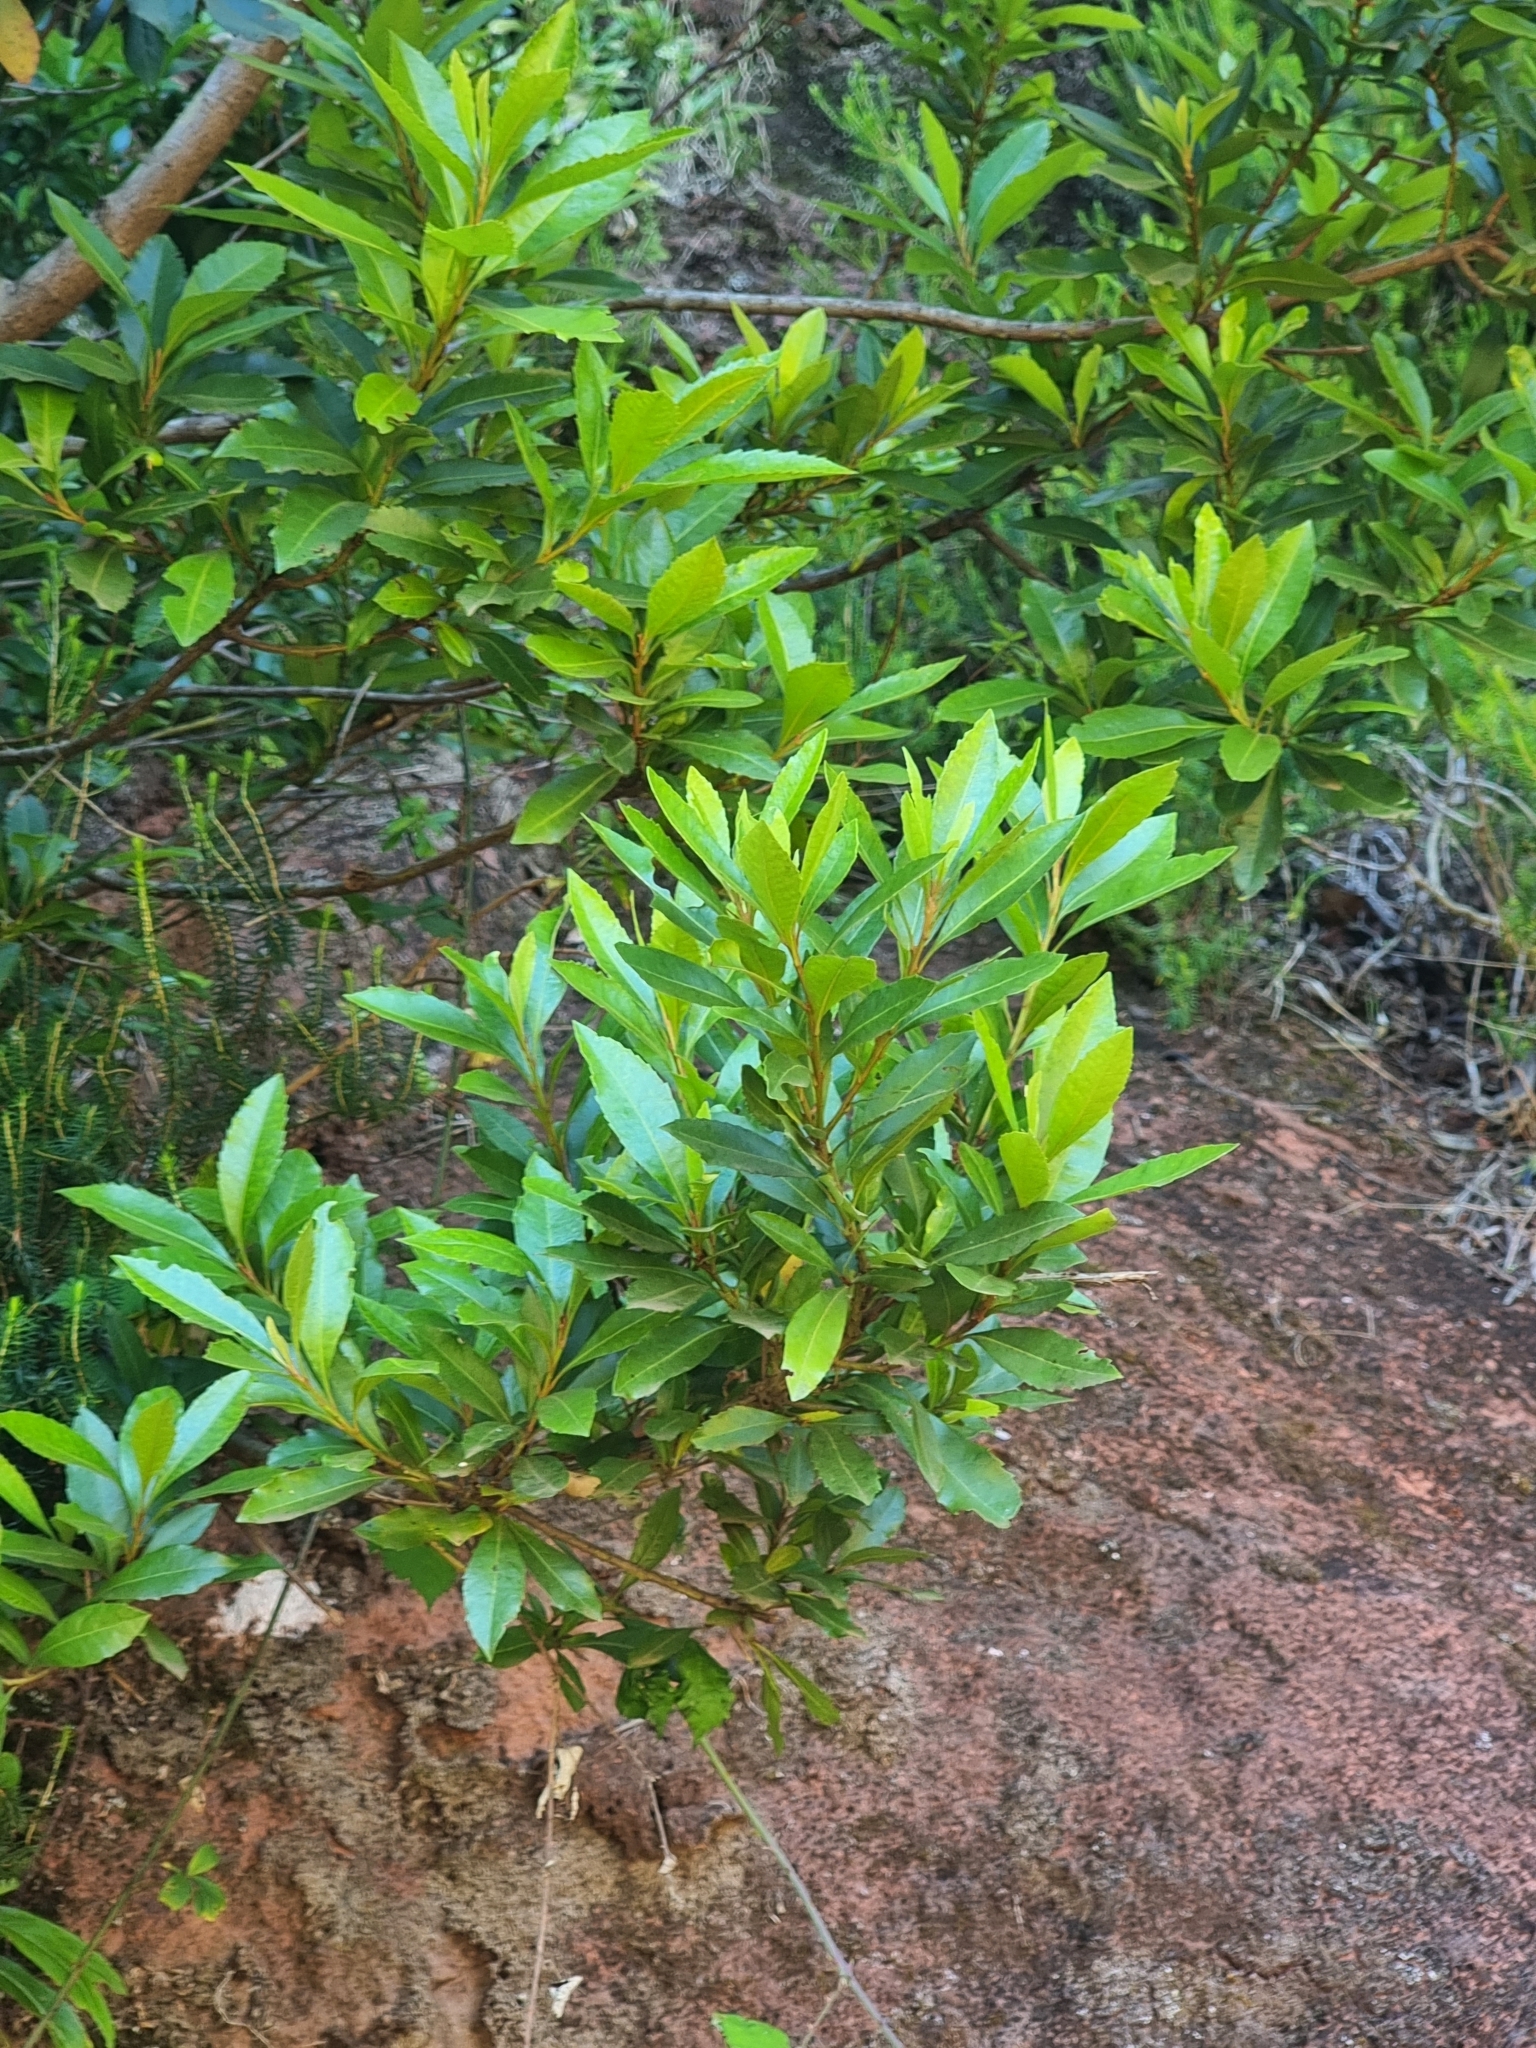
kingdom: Plantae
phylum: Tracheophyta
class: Magnoliopsida
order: Fagales
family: Myricaceae
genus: Morella
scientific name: Morella faya
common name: Firetree
